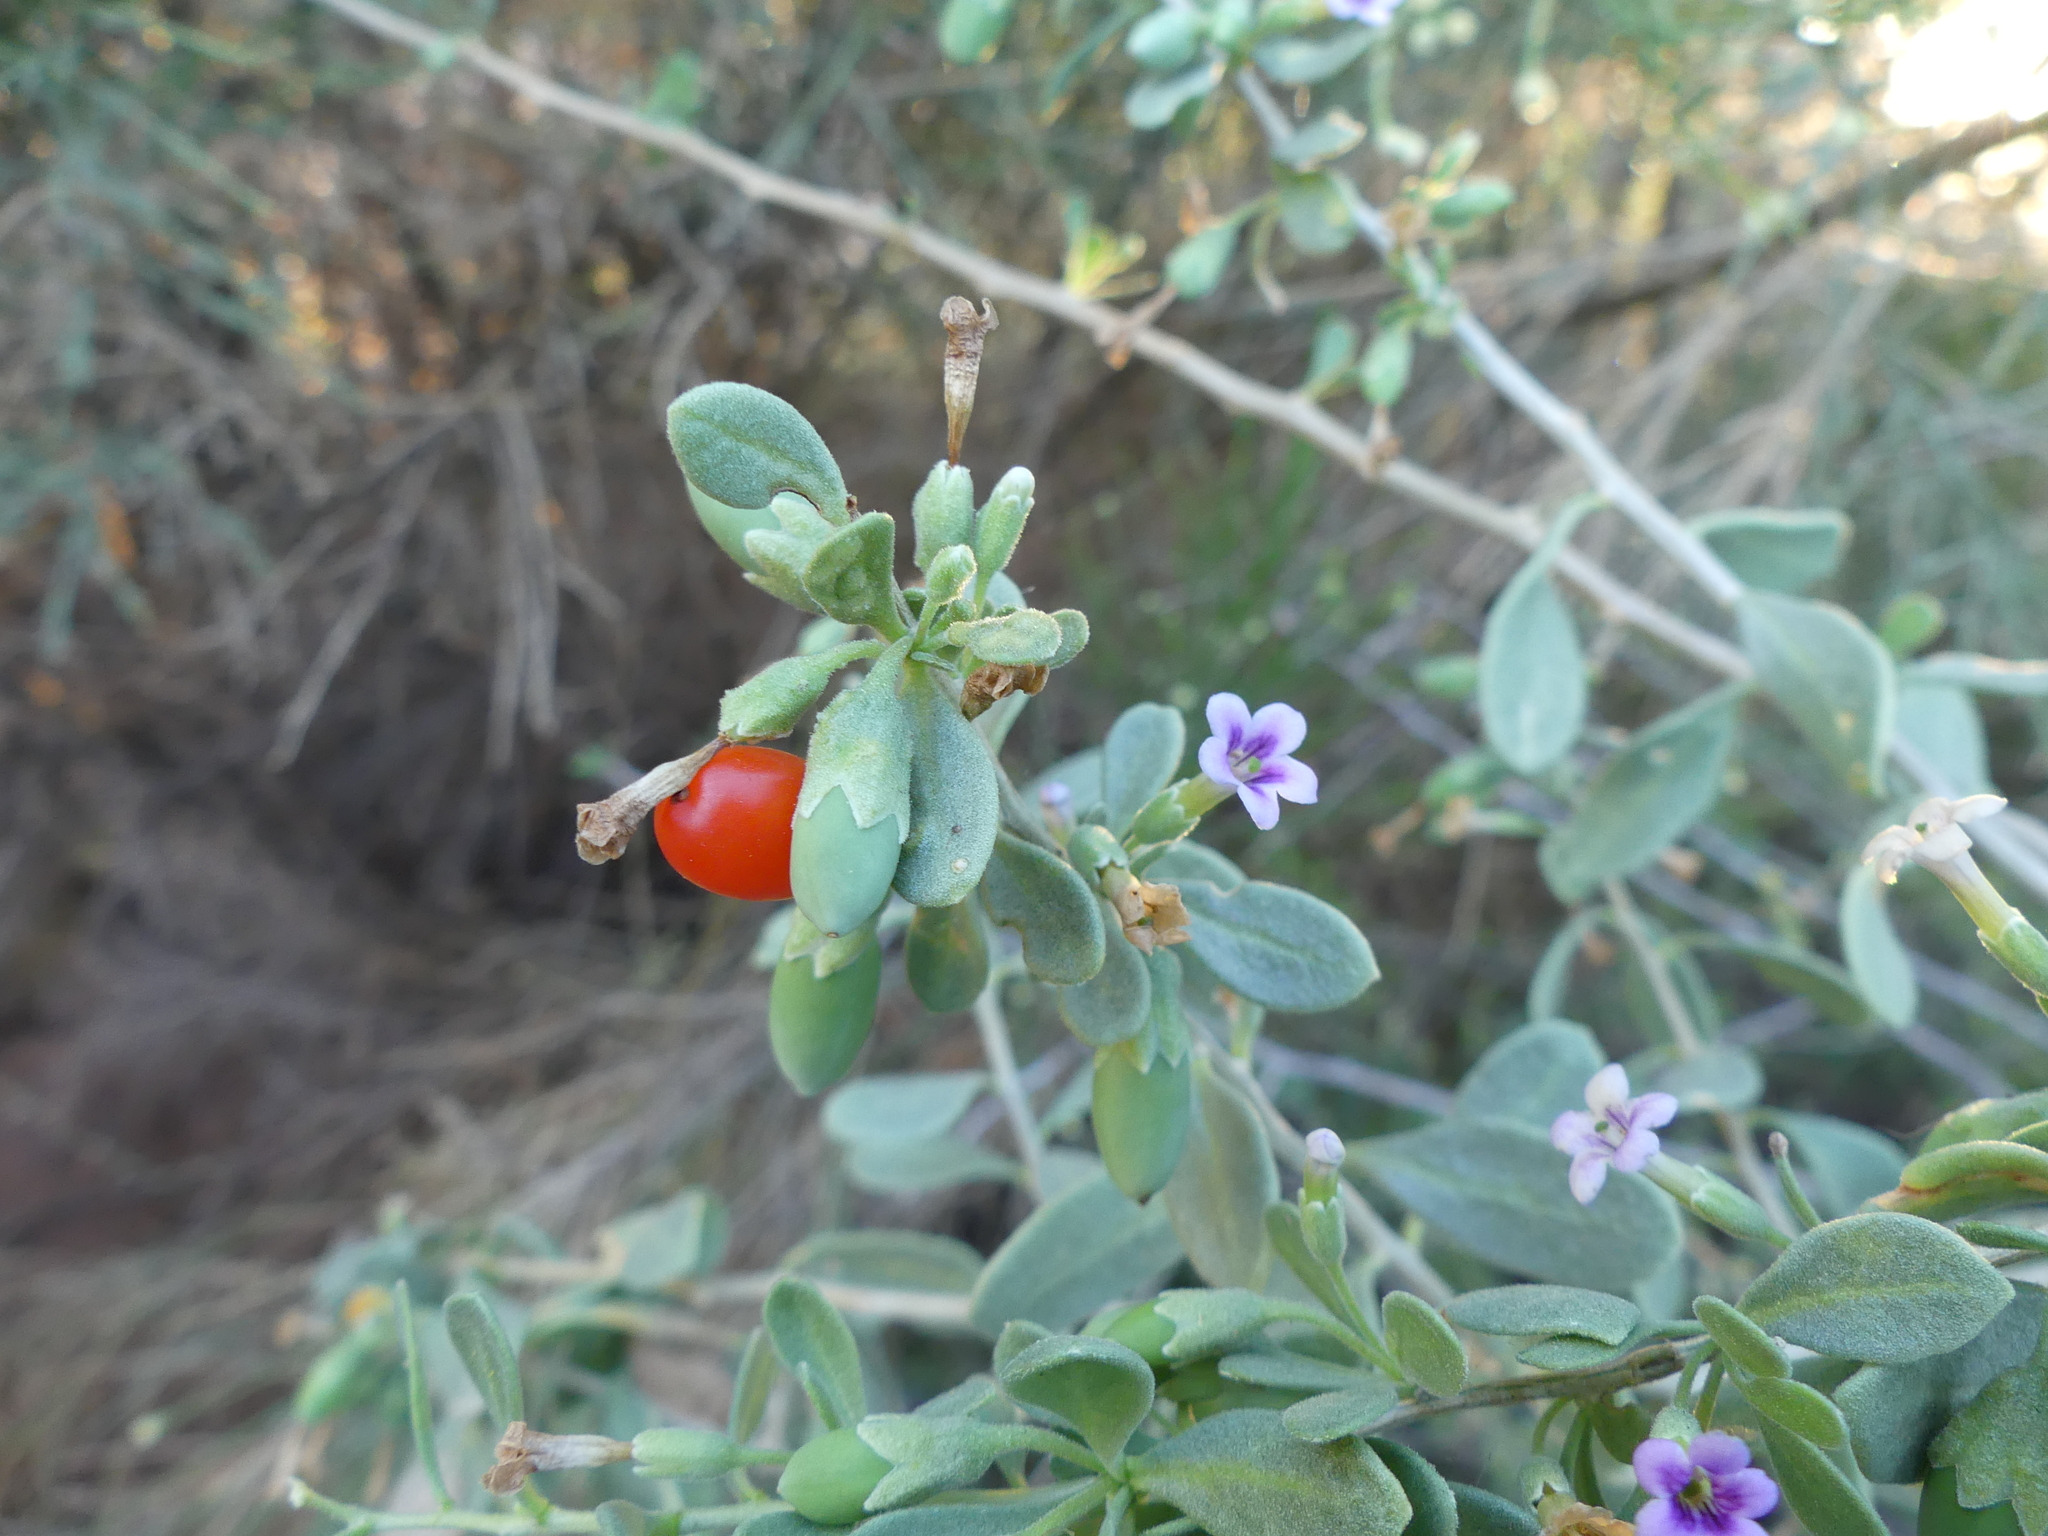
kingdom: Plantae
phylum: Tracheophyta
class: Magnoliopsida
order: Solanales
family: Solanaceae
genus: Lycium
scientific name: Lycium fremontii
